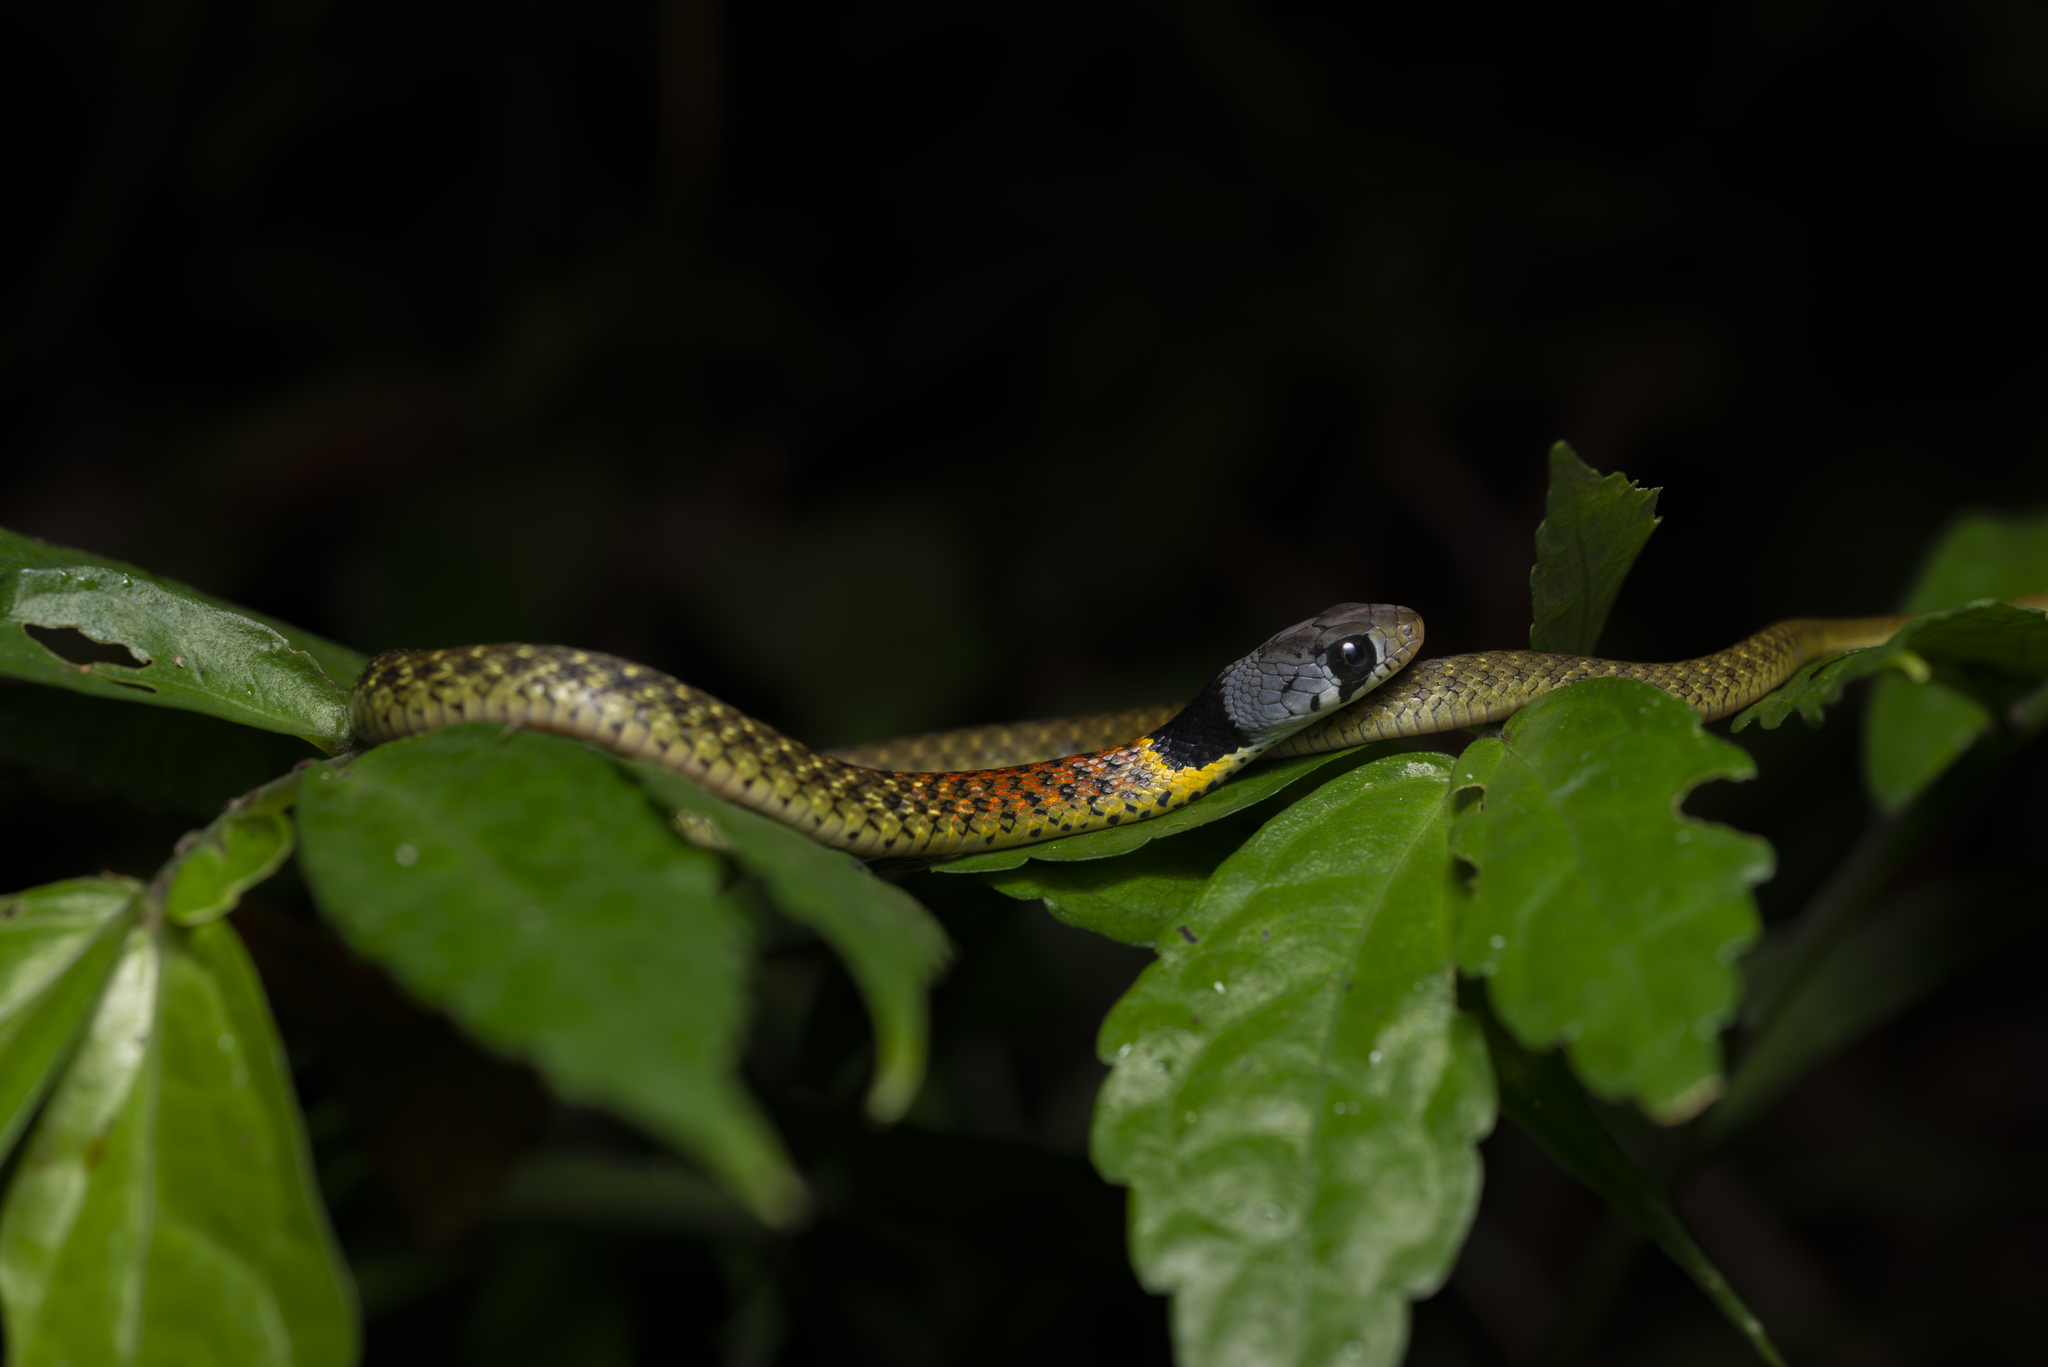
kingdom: Animalia
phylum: Chordata
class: Squamata
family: Colubridae
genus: Rhabdophis
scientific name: Rhabdophis helleri
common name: Heller’s red-necked keelback
